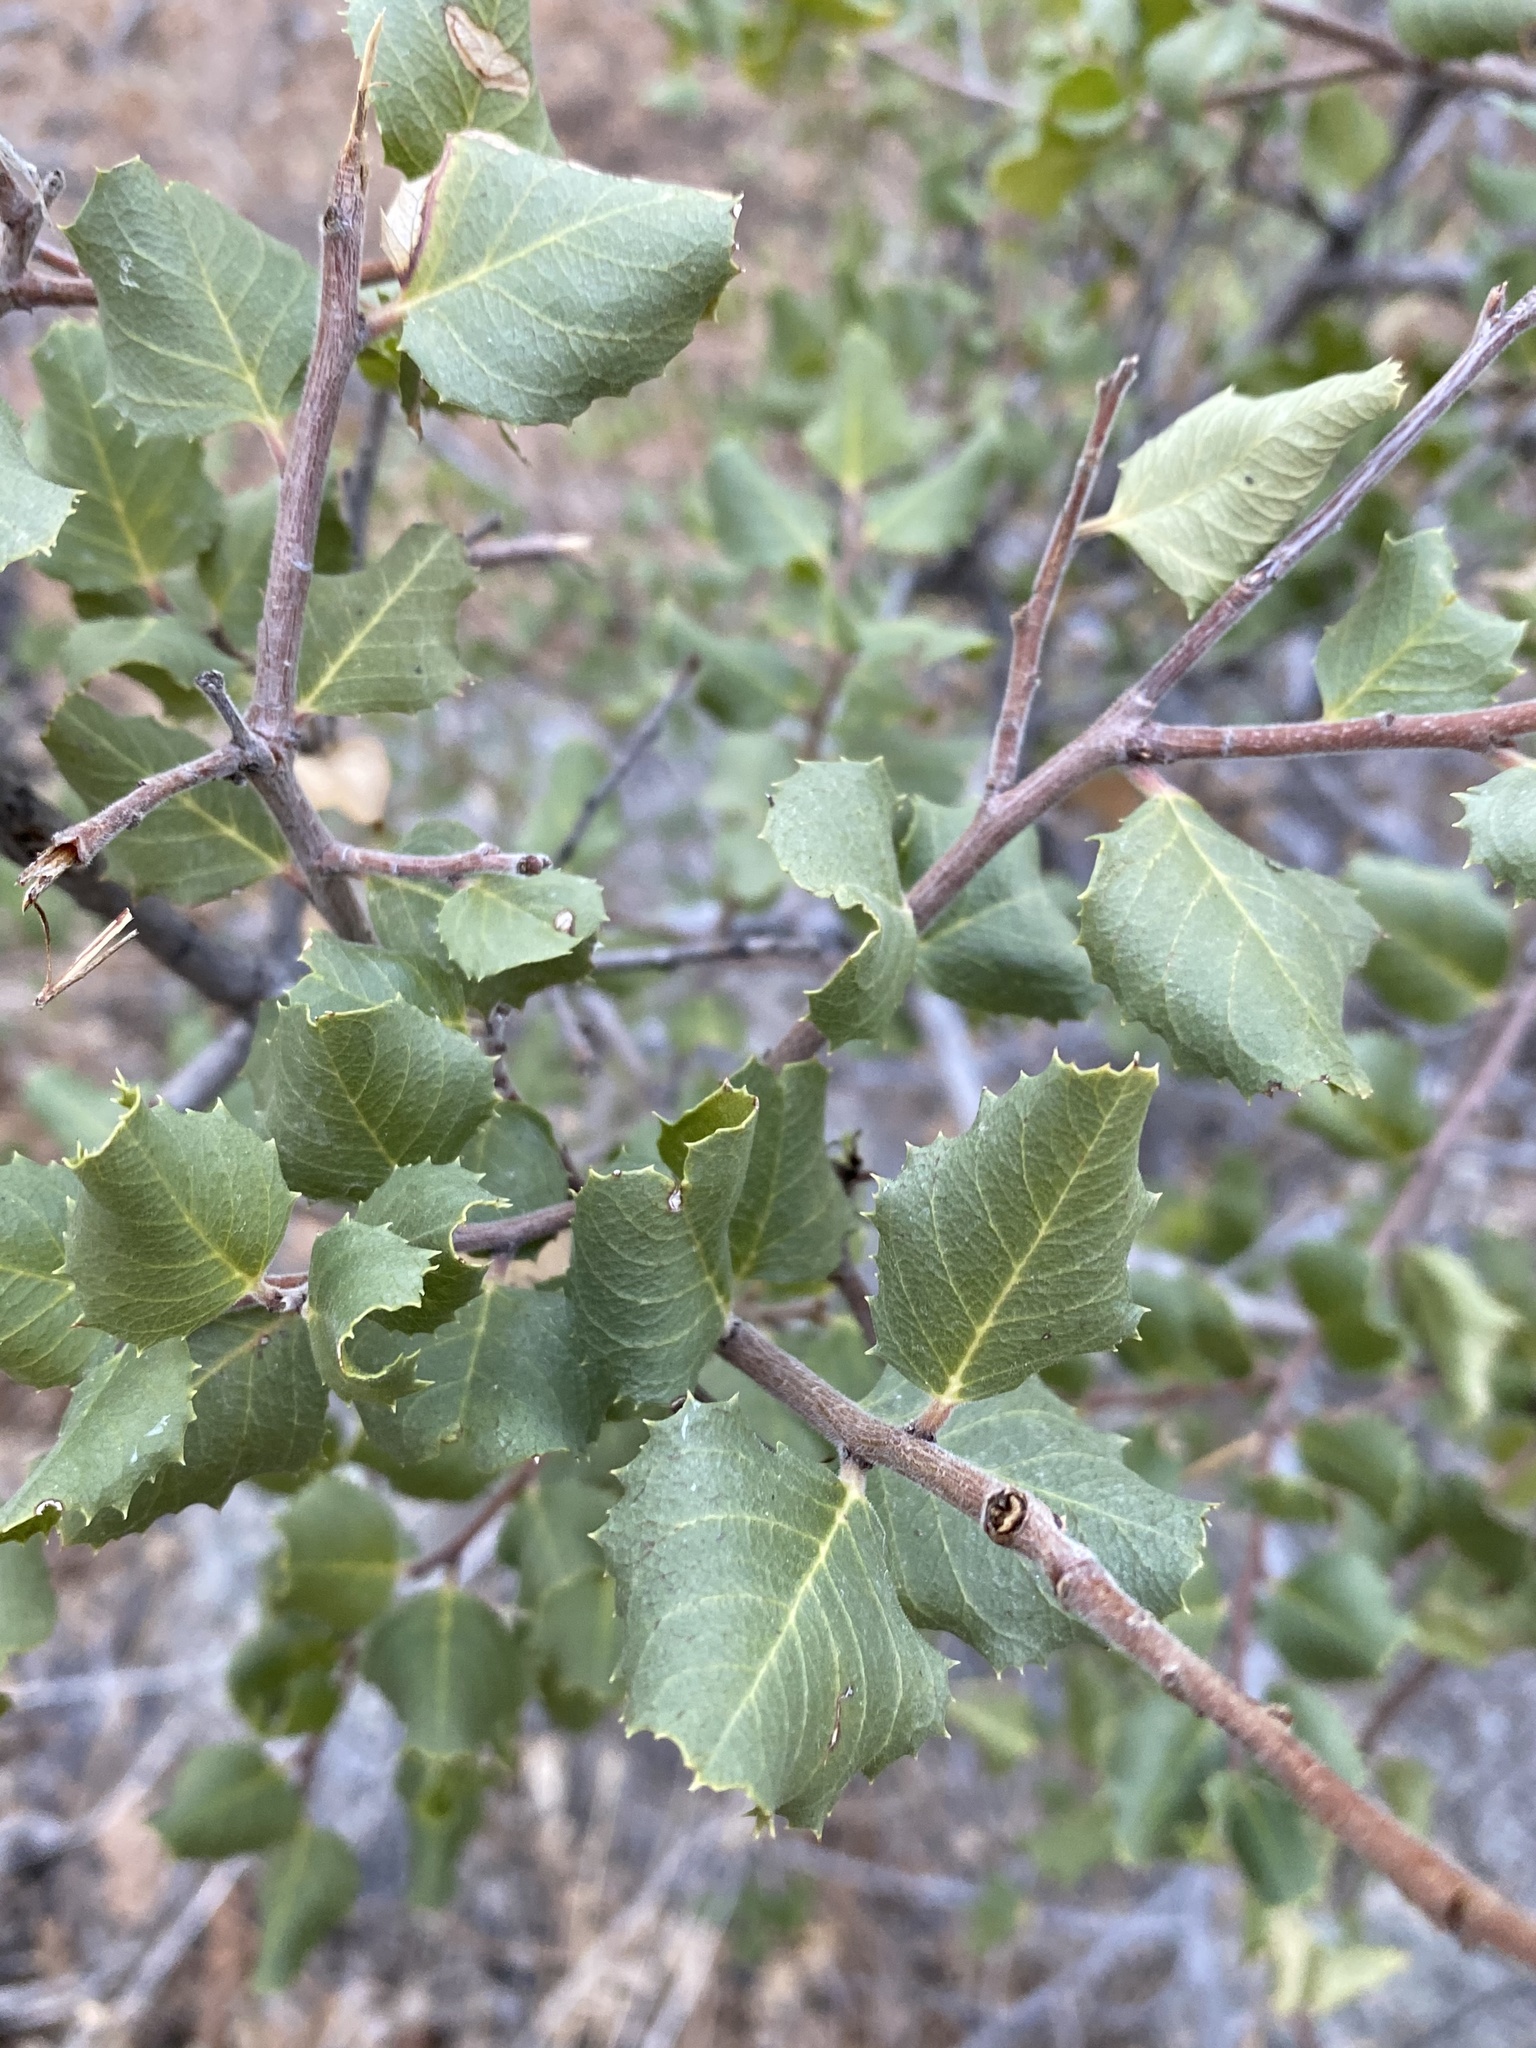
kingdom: Plantae
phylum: Tracheophyta
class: Magnoliopsida
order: Rosales
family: Rhamnaceae
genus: Endotropis
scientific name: Endotropis crocea
